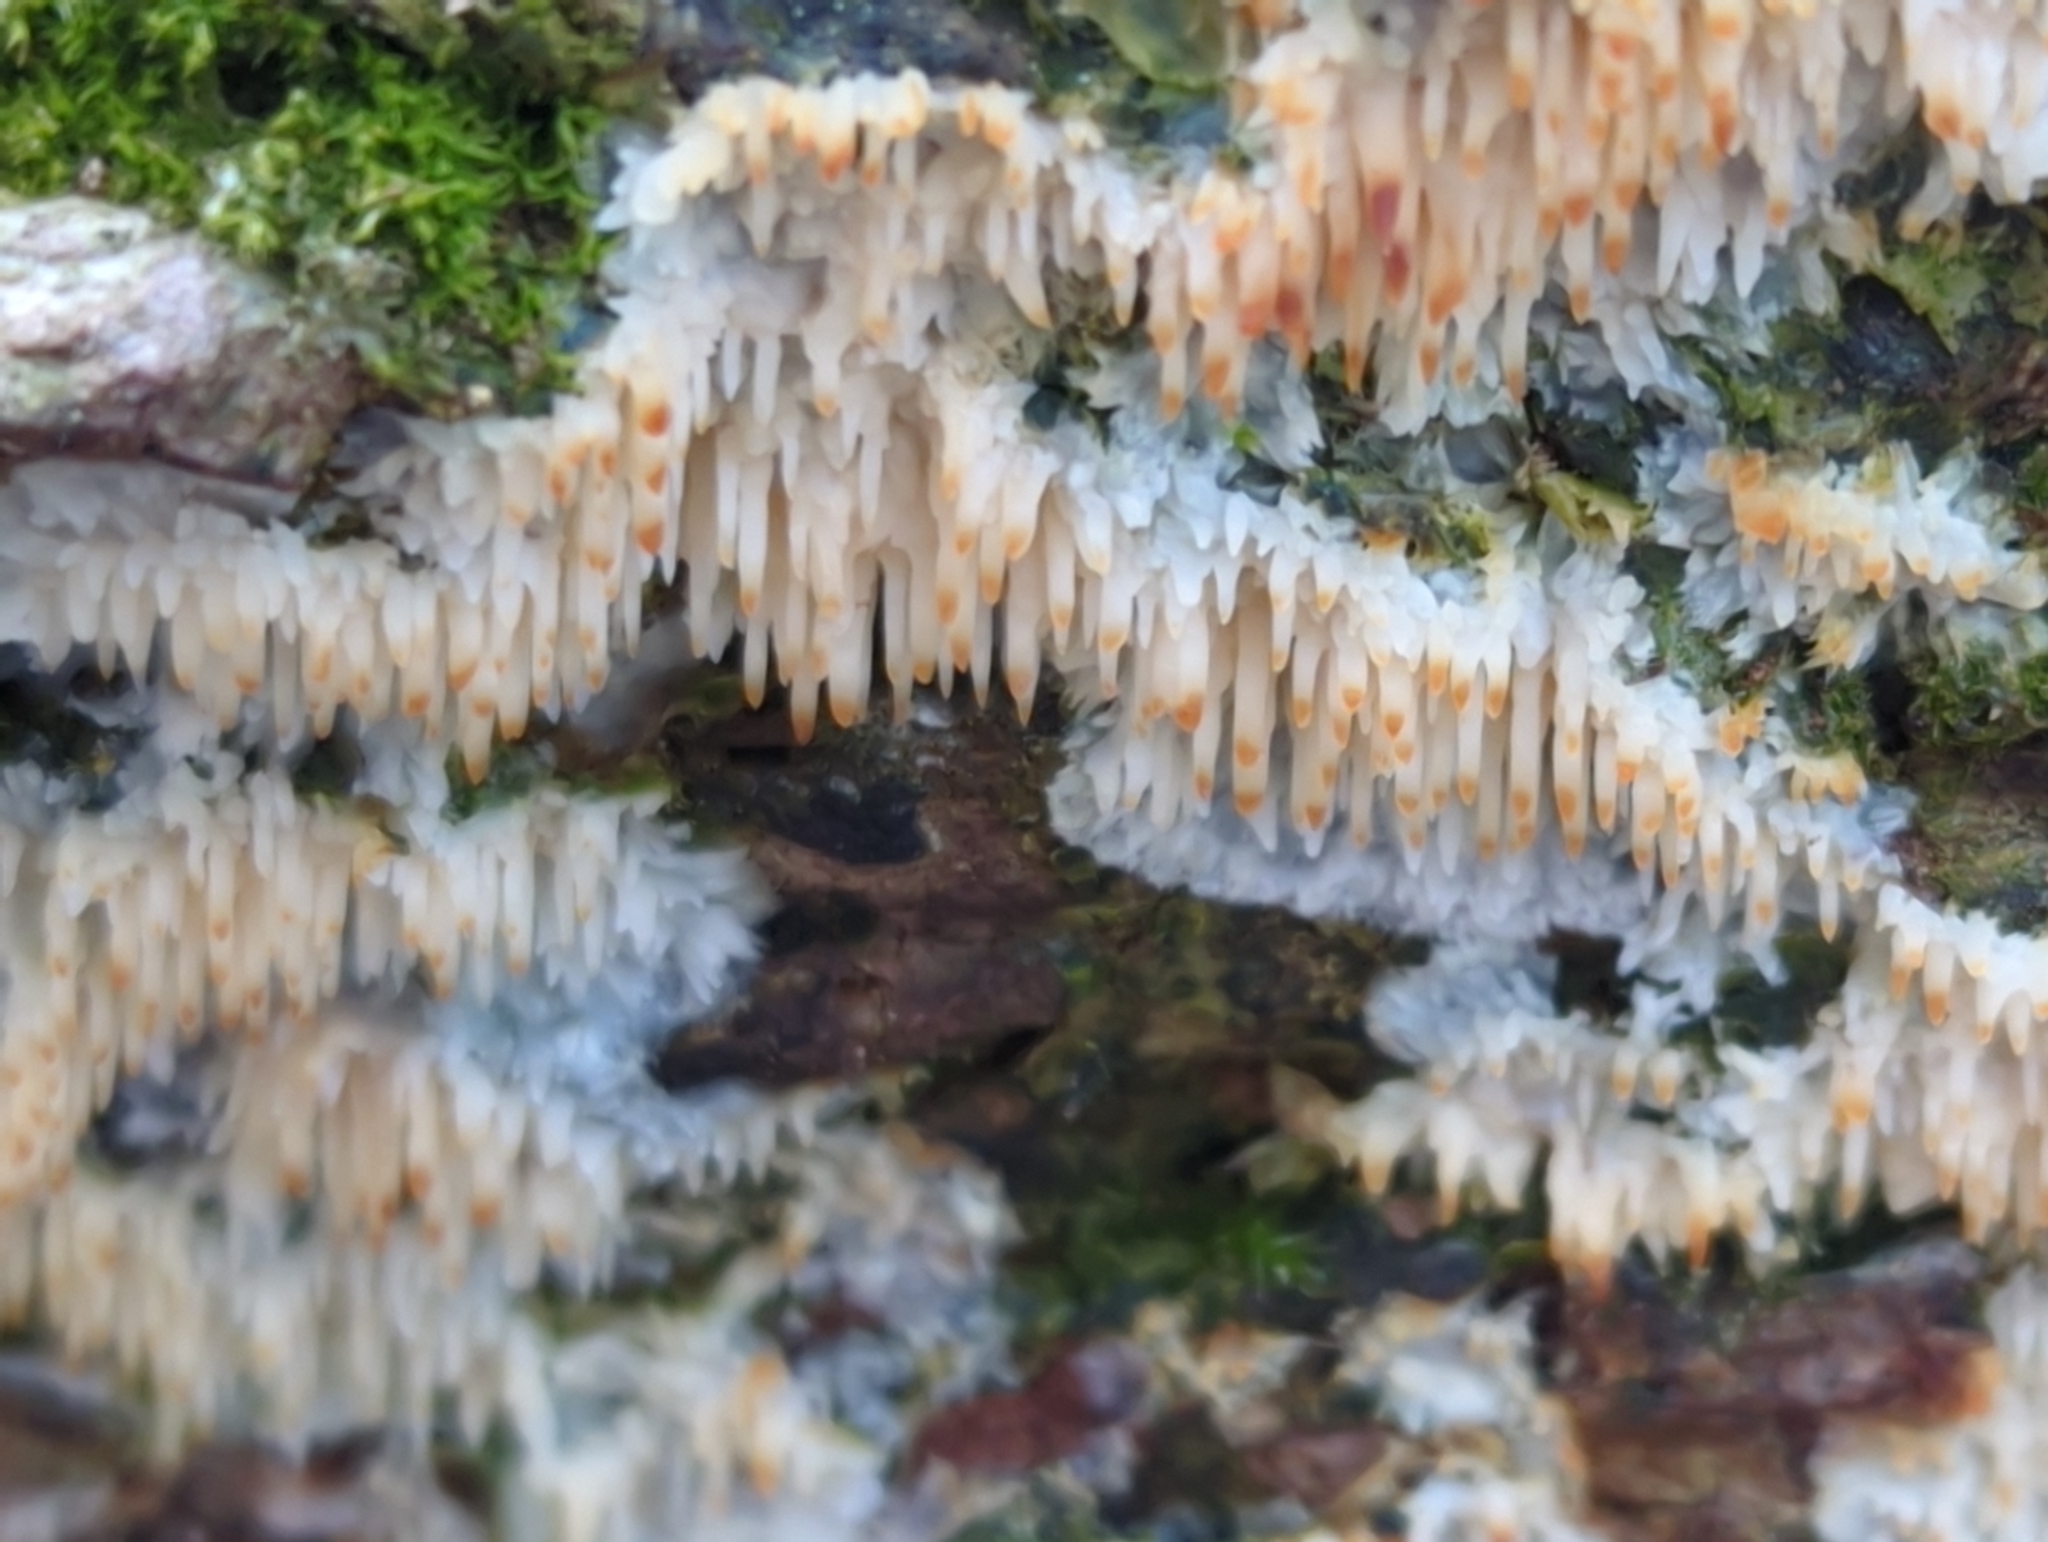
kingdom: Fungi
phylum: Basidiomycota
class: Agaricomycetes
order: Agaricales
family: Radulomycetaceae
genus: Radulomyces
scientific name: Radulomyces copelandii
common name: Asian beauty
